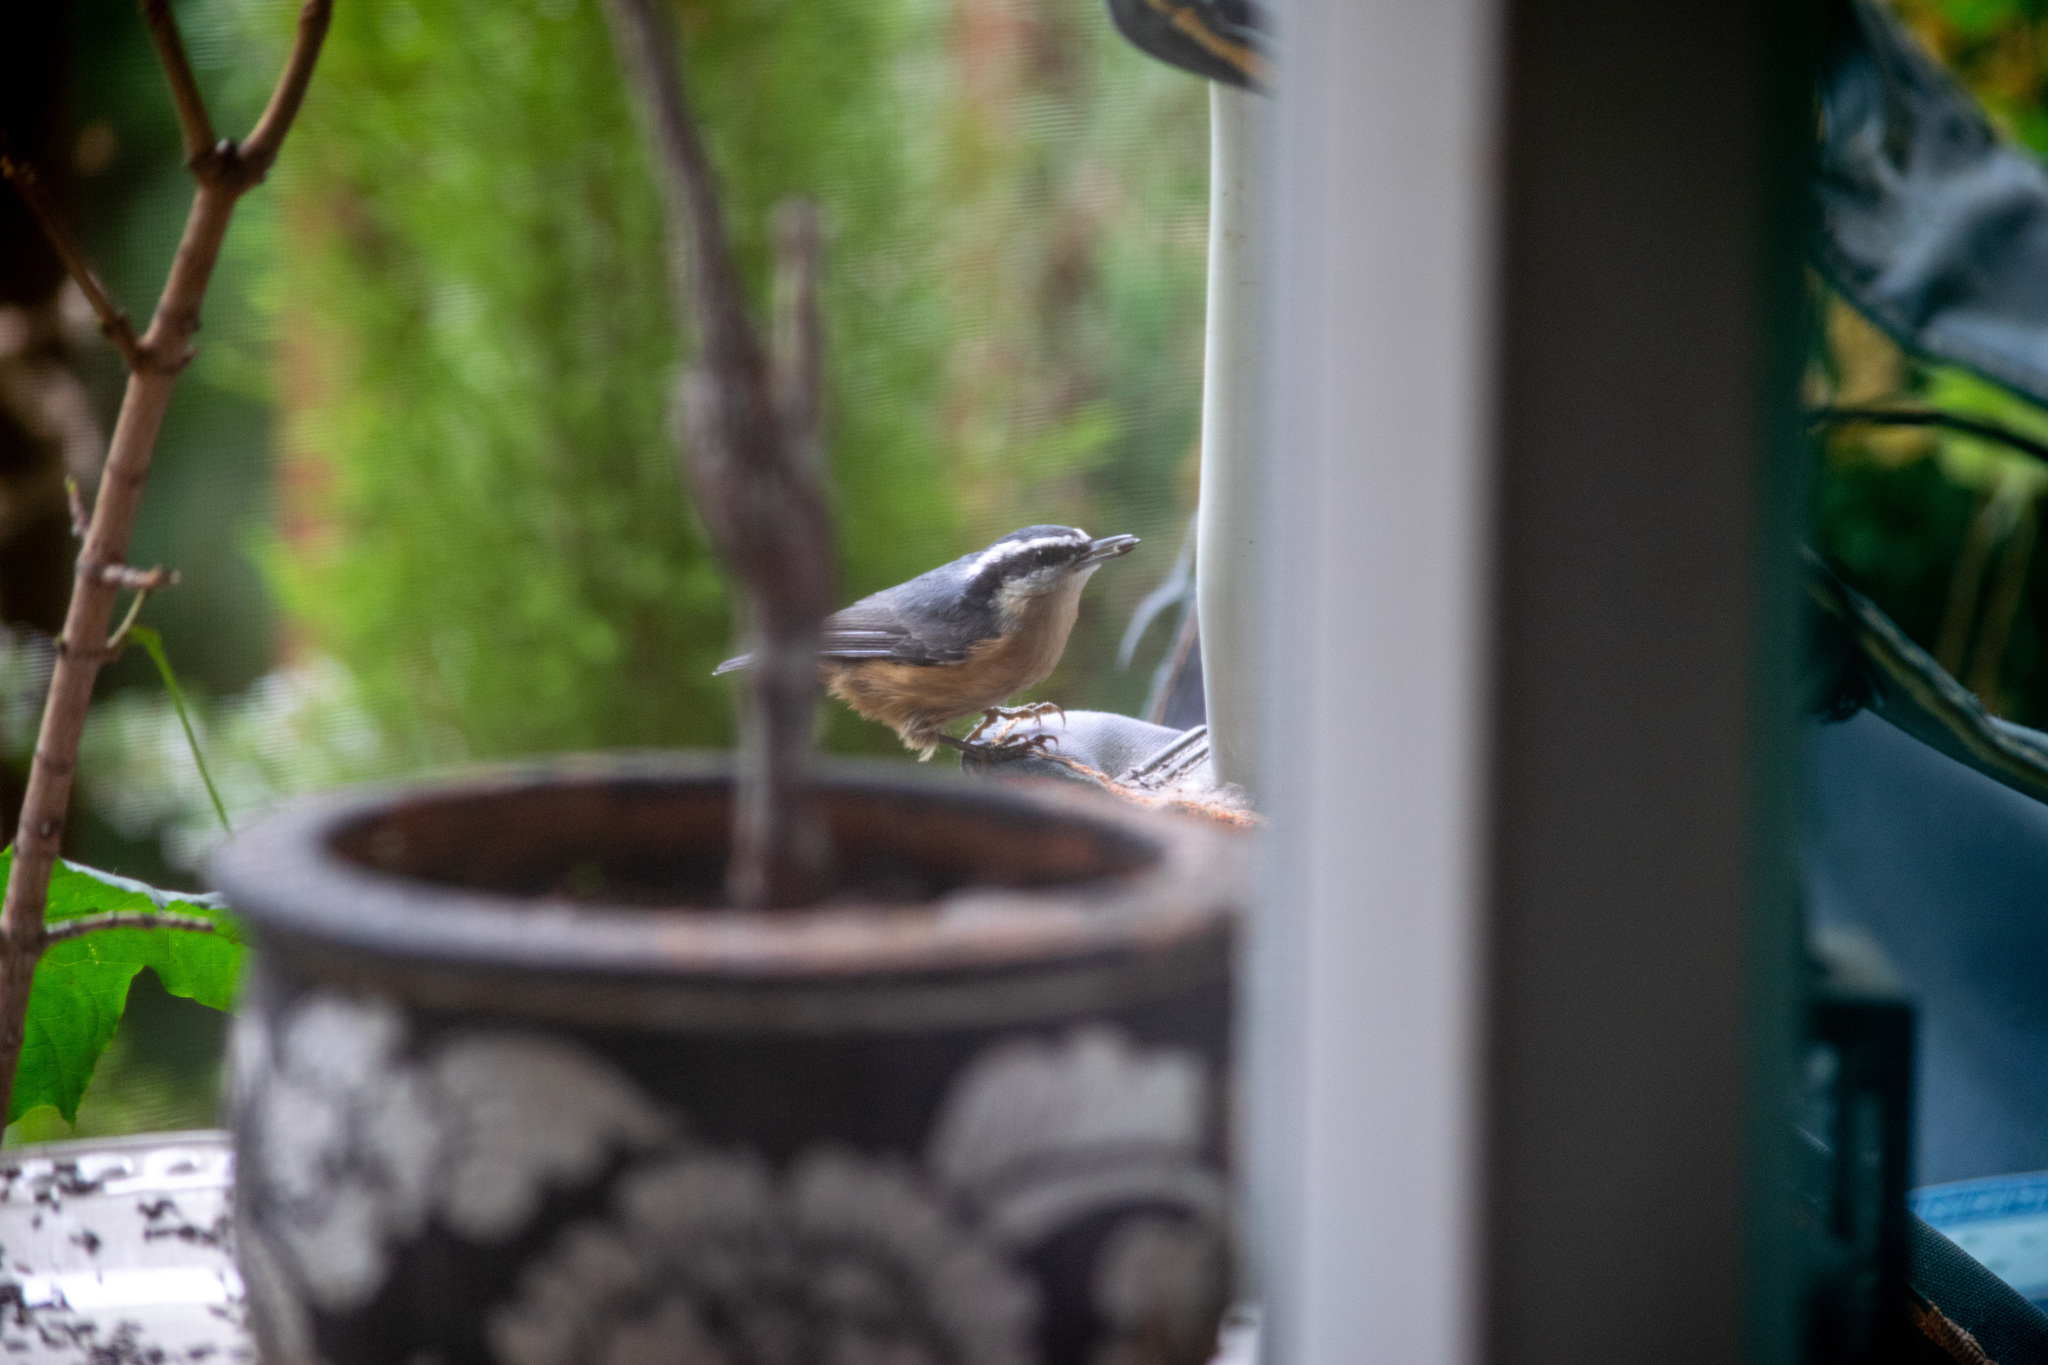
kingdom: Animalia
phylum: Chordata
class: Aves
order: Passeriformes
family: Sittidae
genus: Sitta
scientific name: Sitta canadensis
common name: Red-breasted nuthatch
